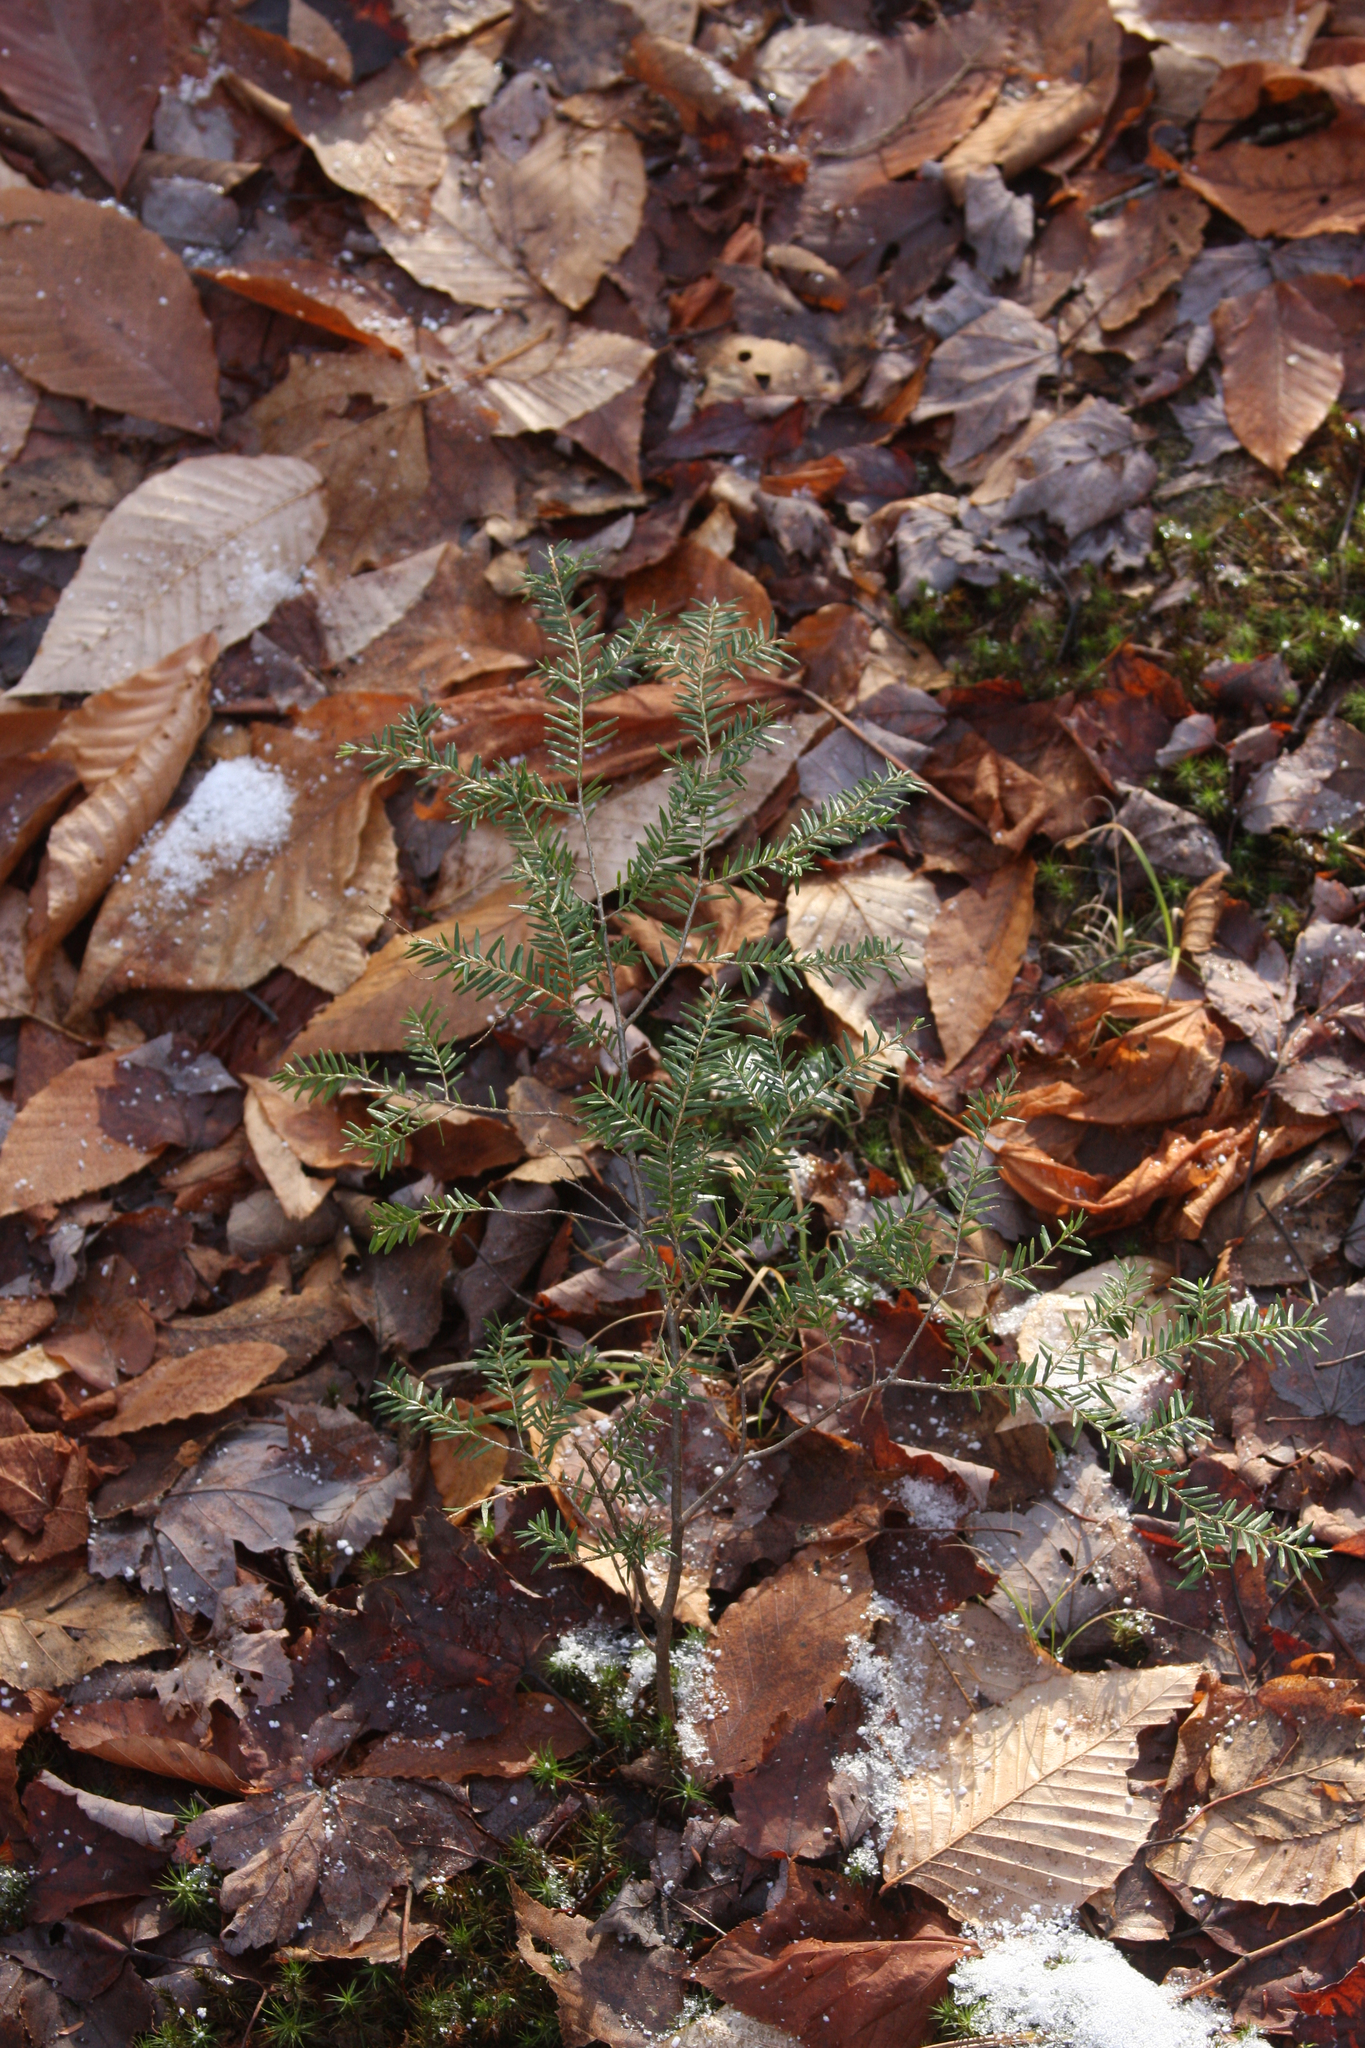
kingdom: Plantae
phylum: Tracheophyta
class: Pinopsida
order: Pinales
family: Pinaceae
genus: Tsuga
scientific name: Tsuga canadensis
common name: Eastern hemlock
